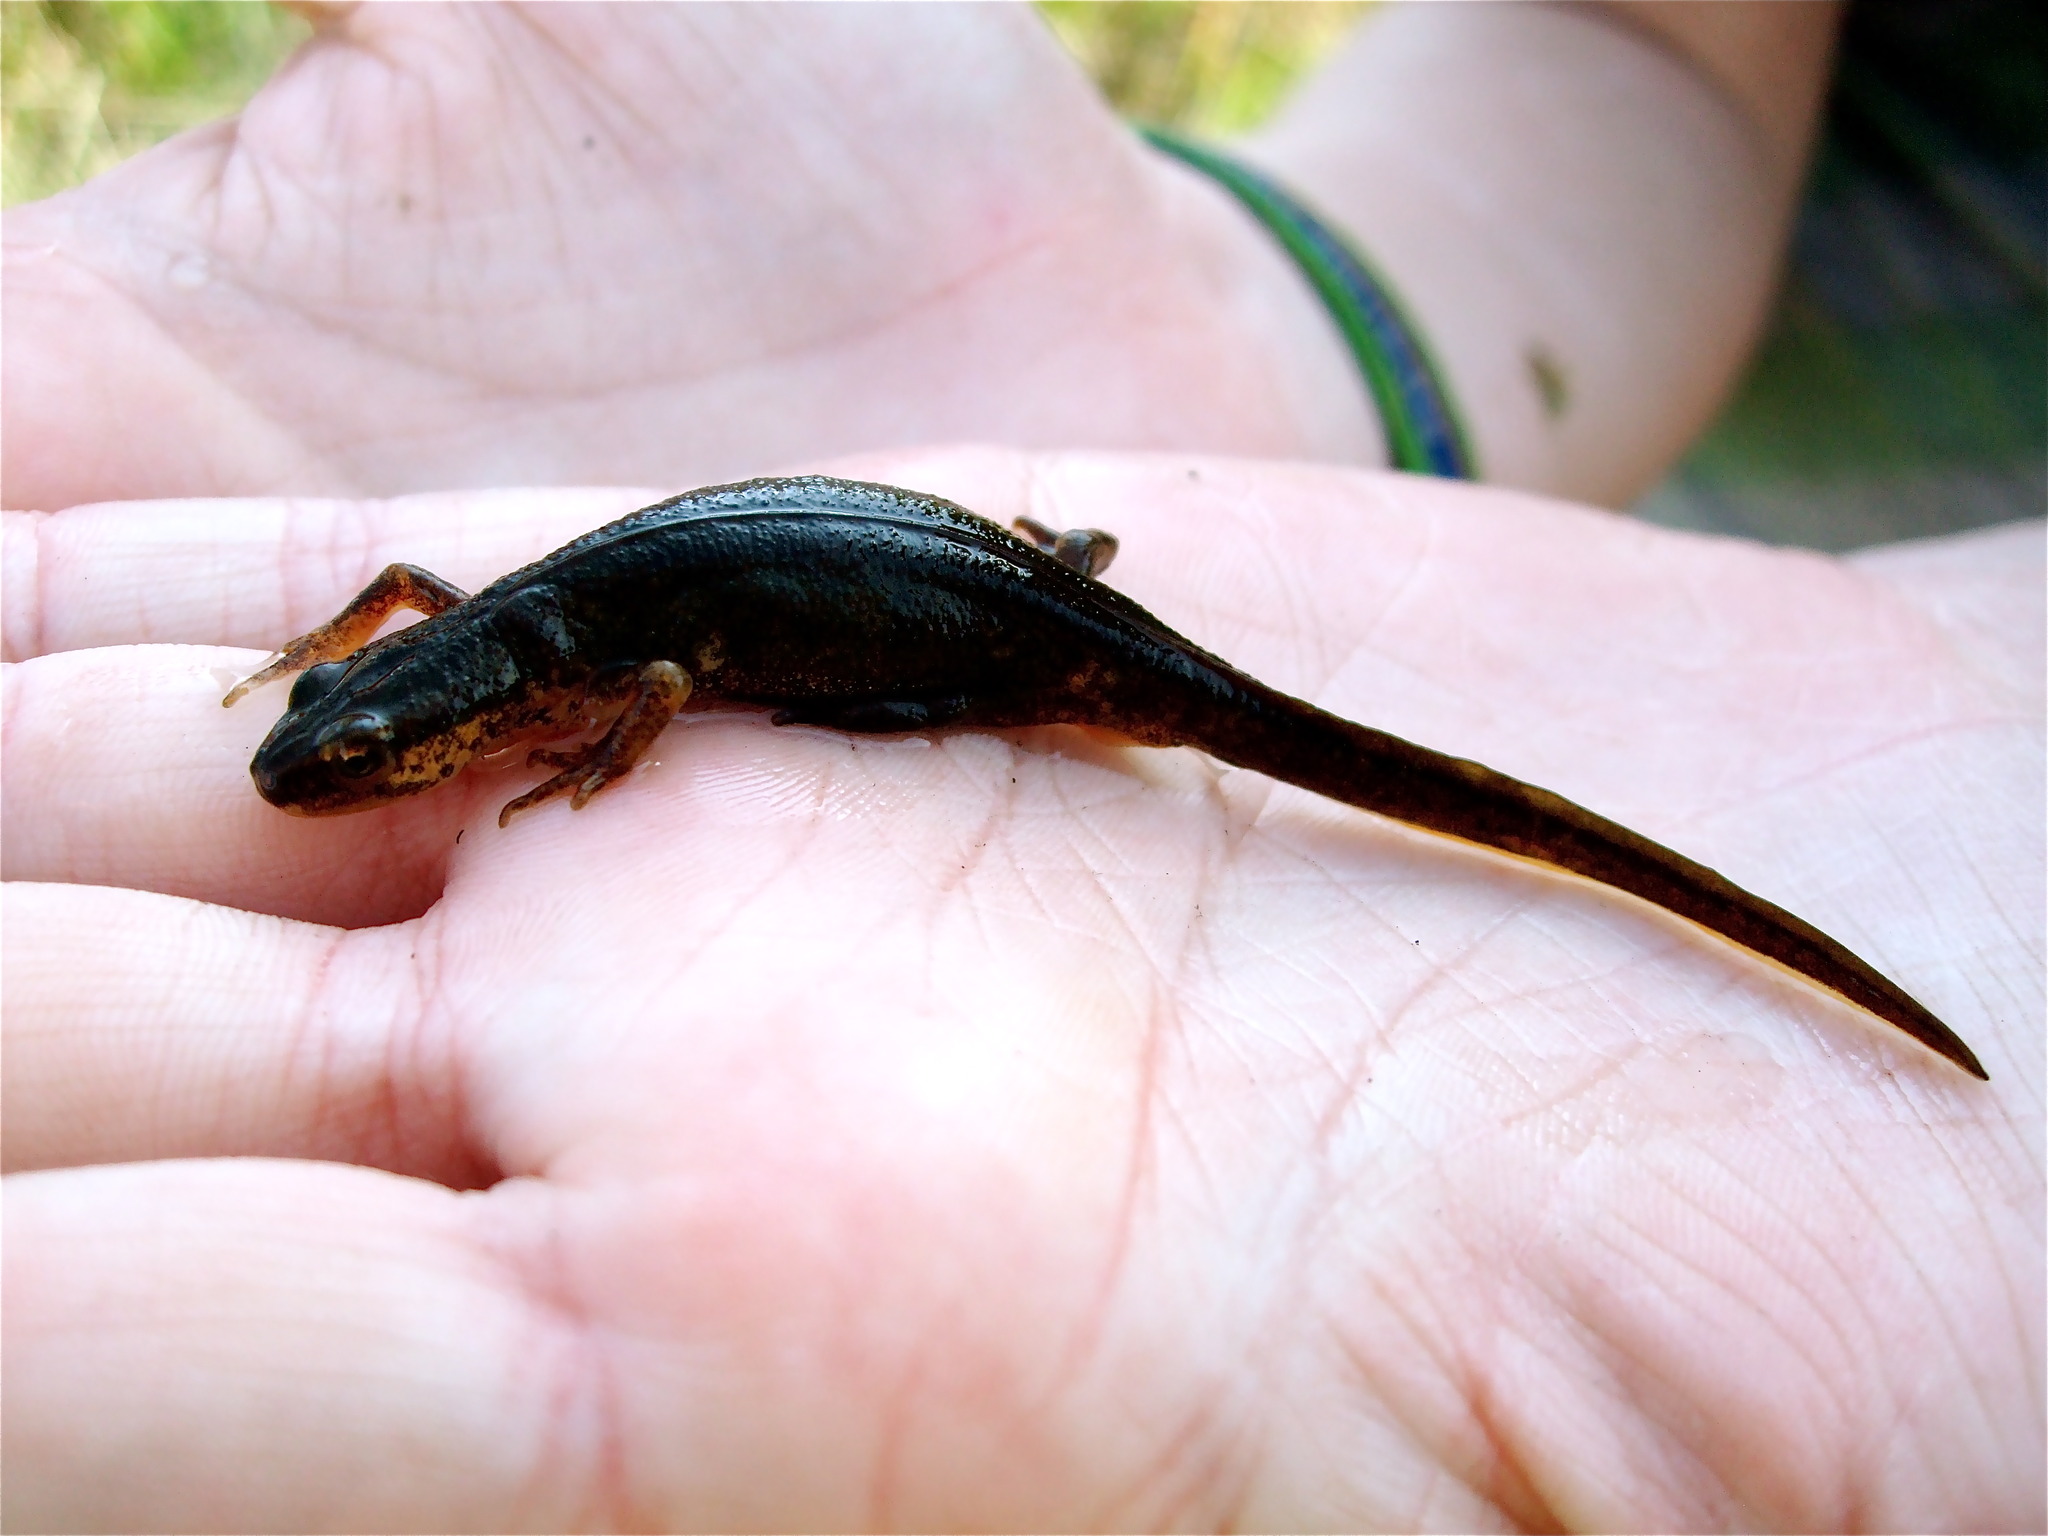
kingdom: Animalia
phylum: Chordata
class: Amphibia
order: Caudata
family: Salamandridae
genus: Lissotriton
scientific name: Lissotriton vulgaris
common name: Smooth newt
